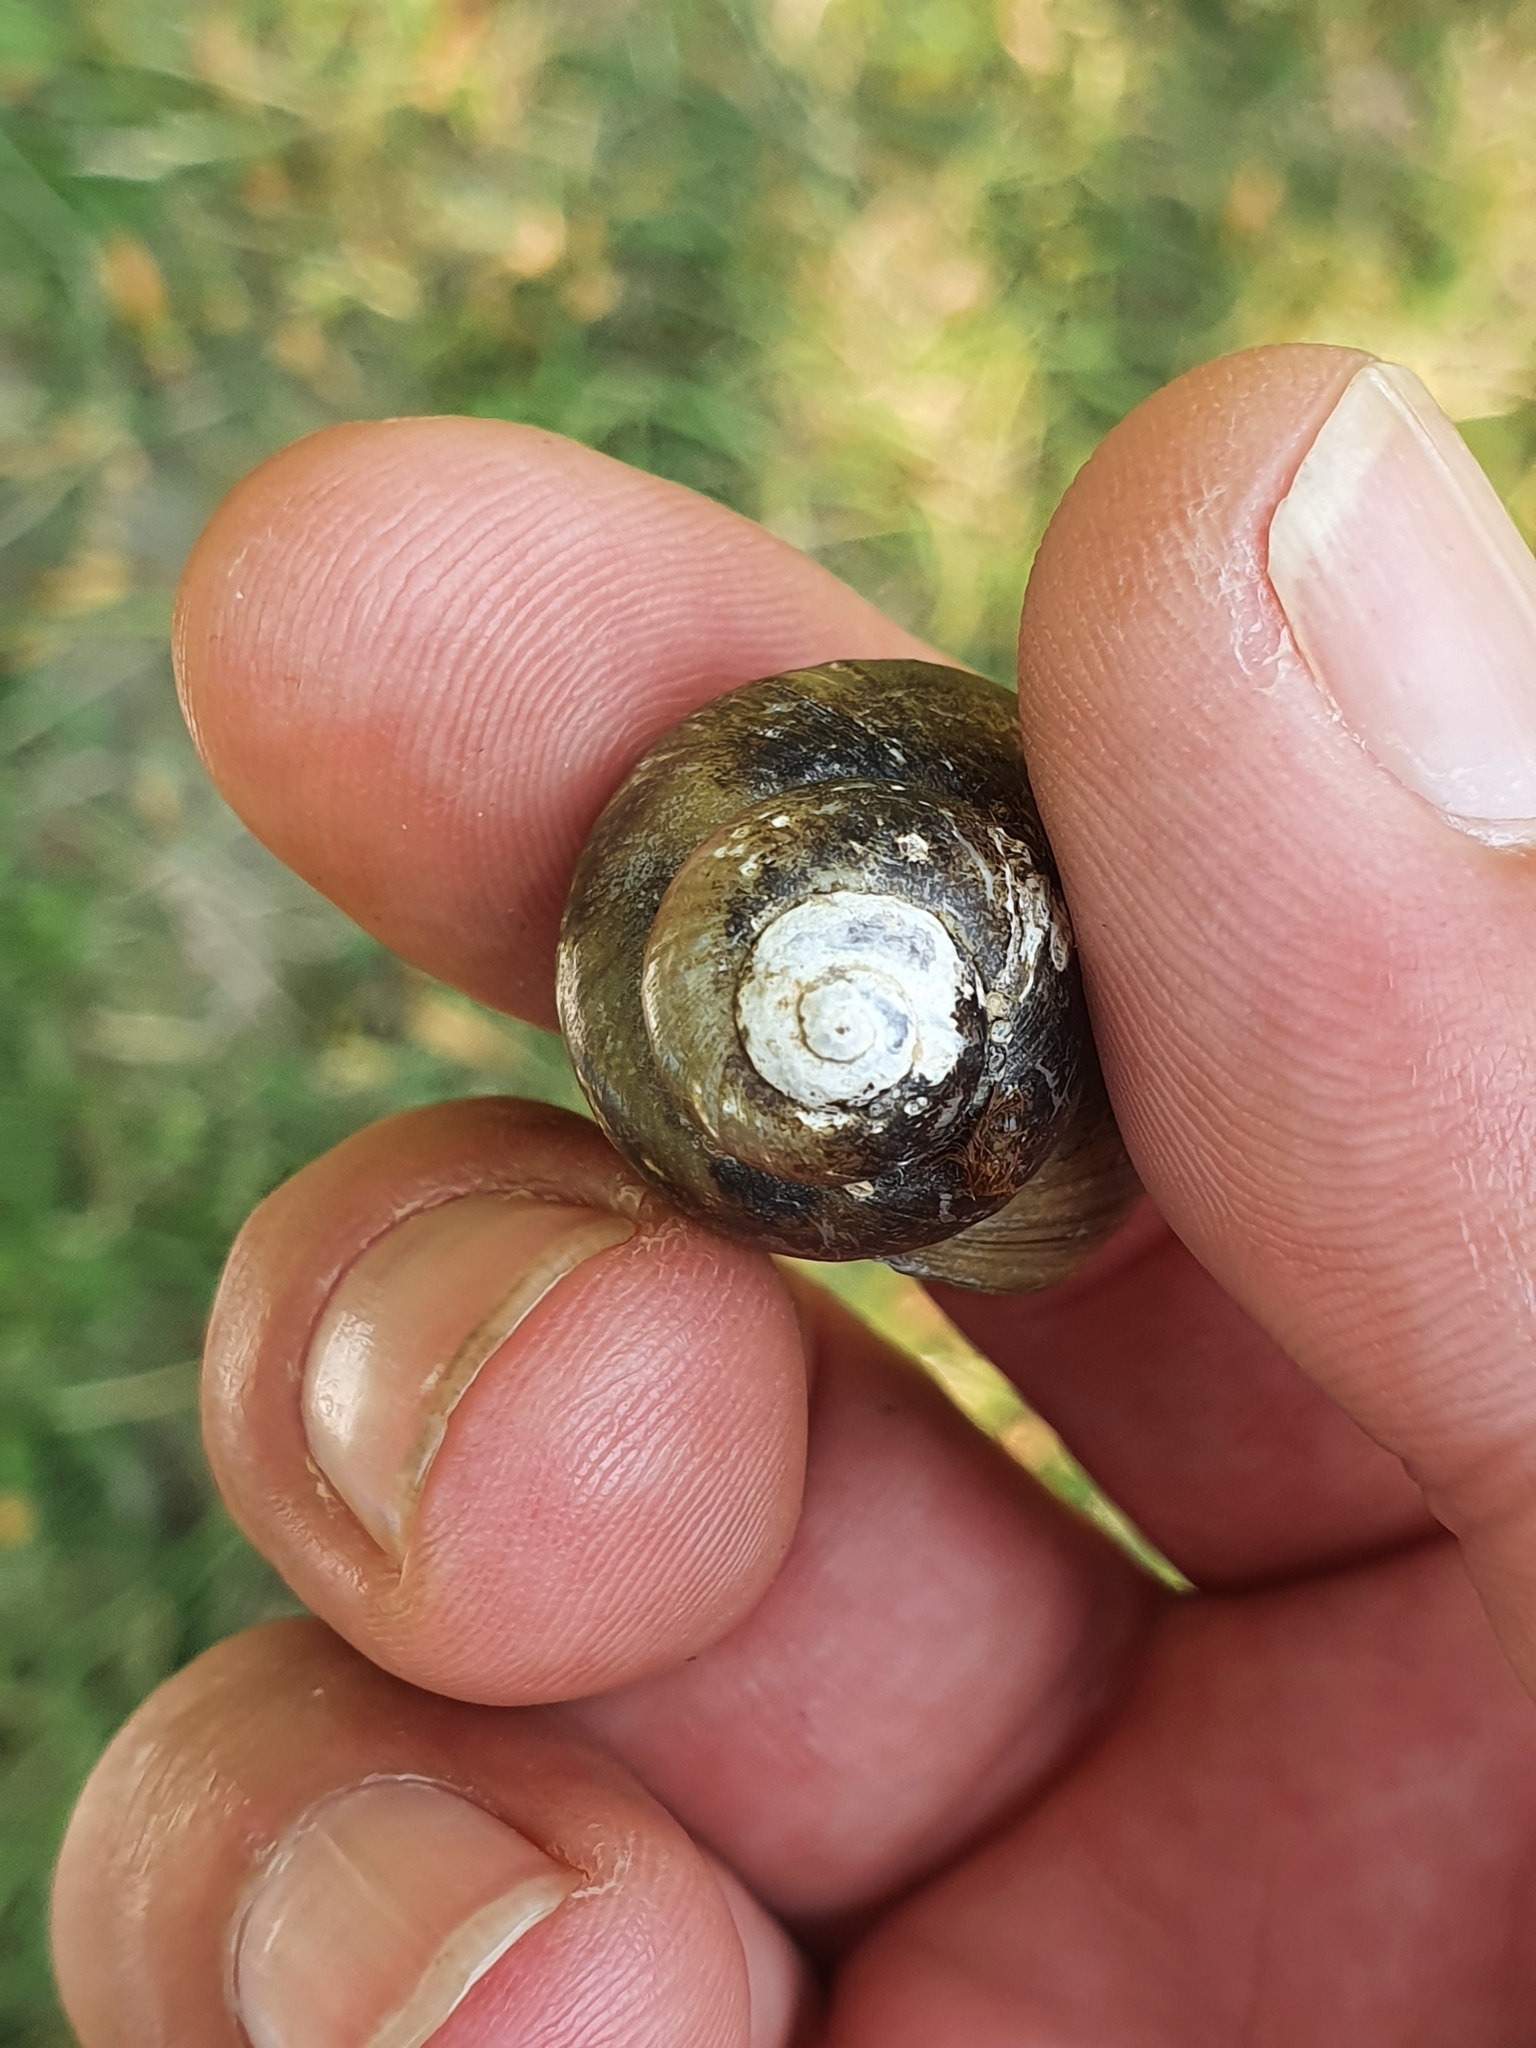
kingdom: Animalia
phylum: Mollusca
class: Gastropoda
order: Architaenioglossa
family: Viviparidae
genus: Viviparus
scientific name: Viviparus viviparus
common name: River snail
